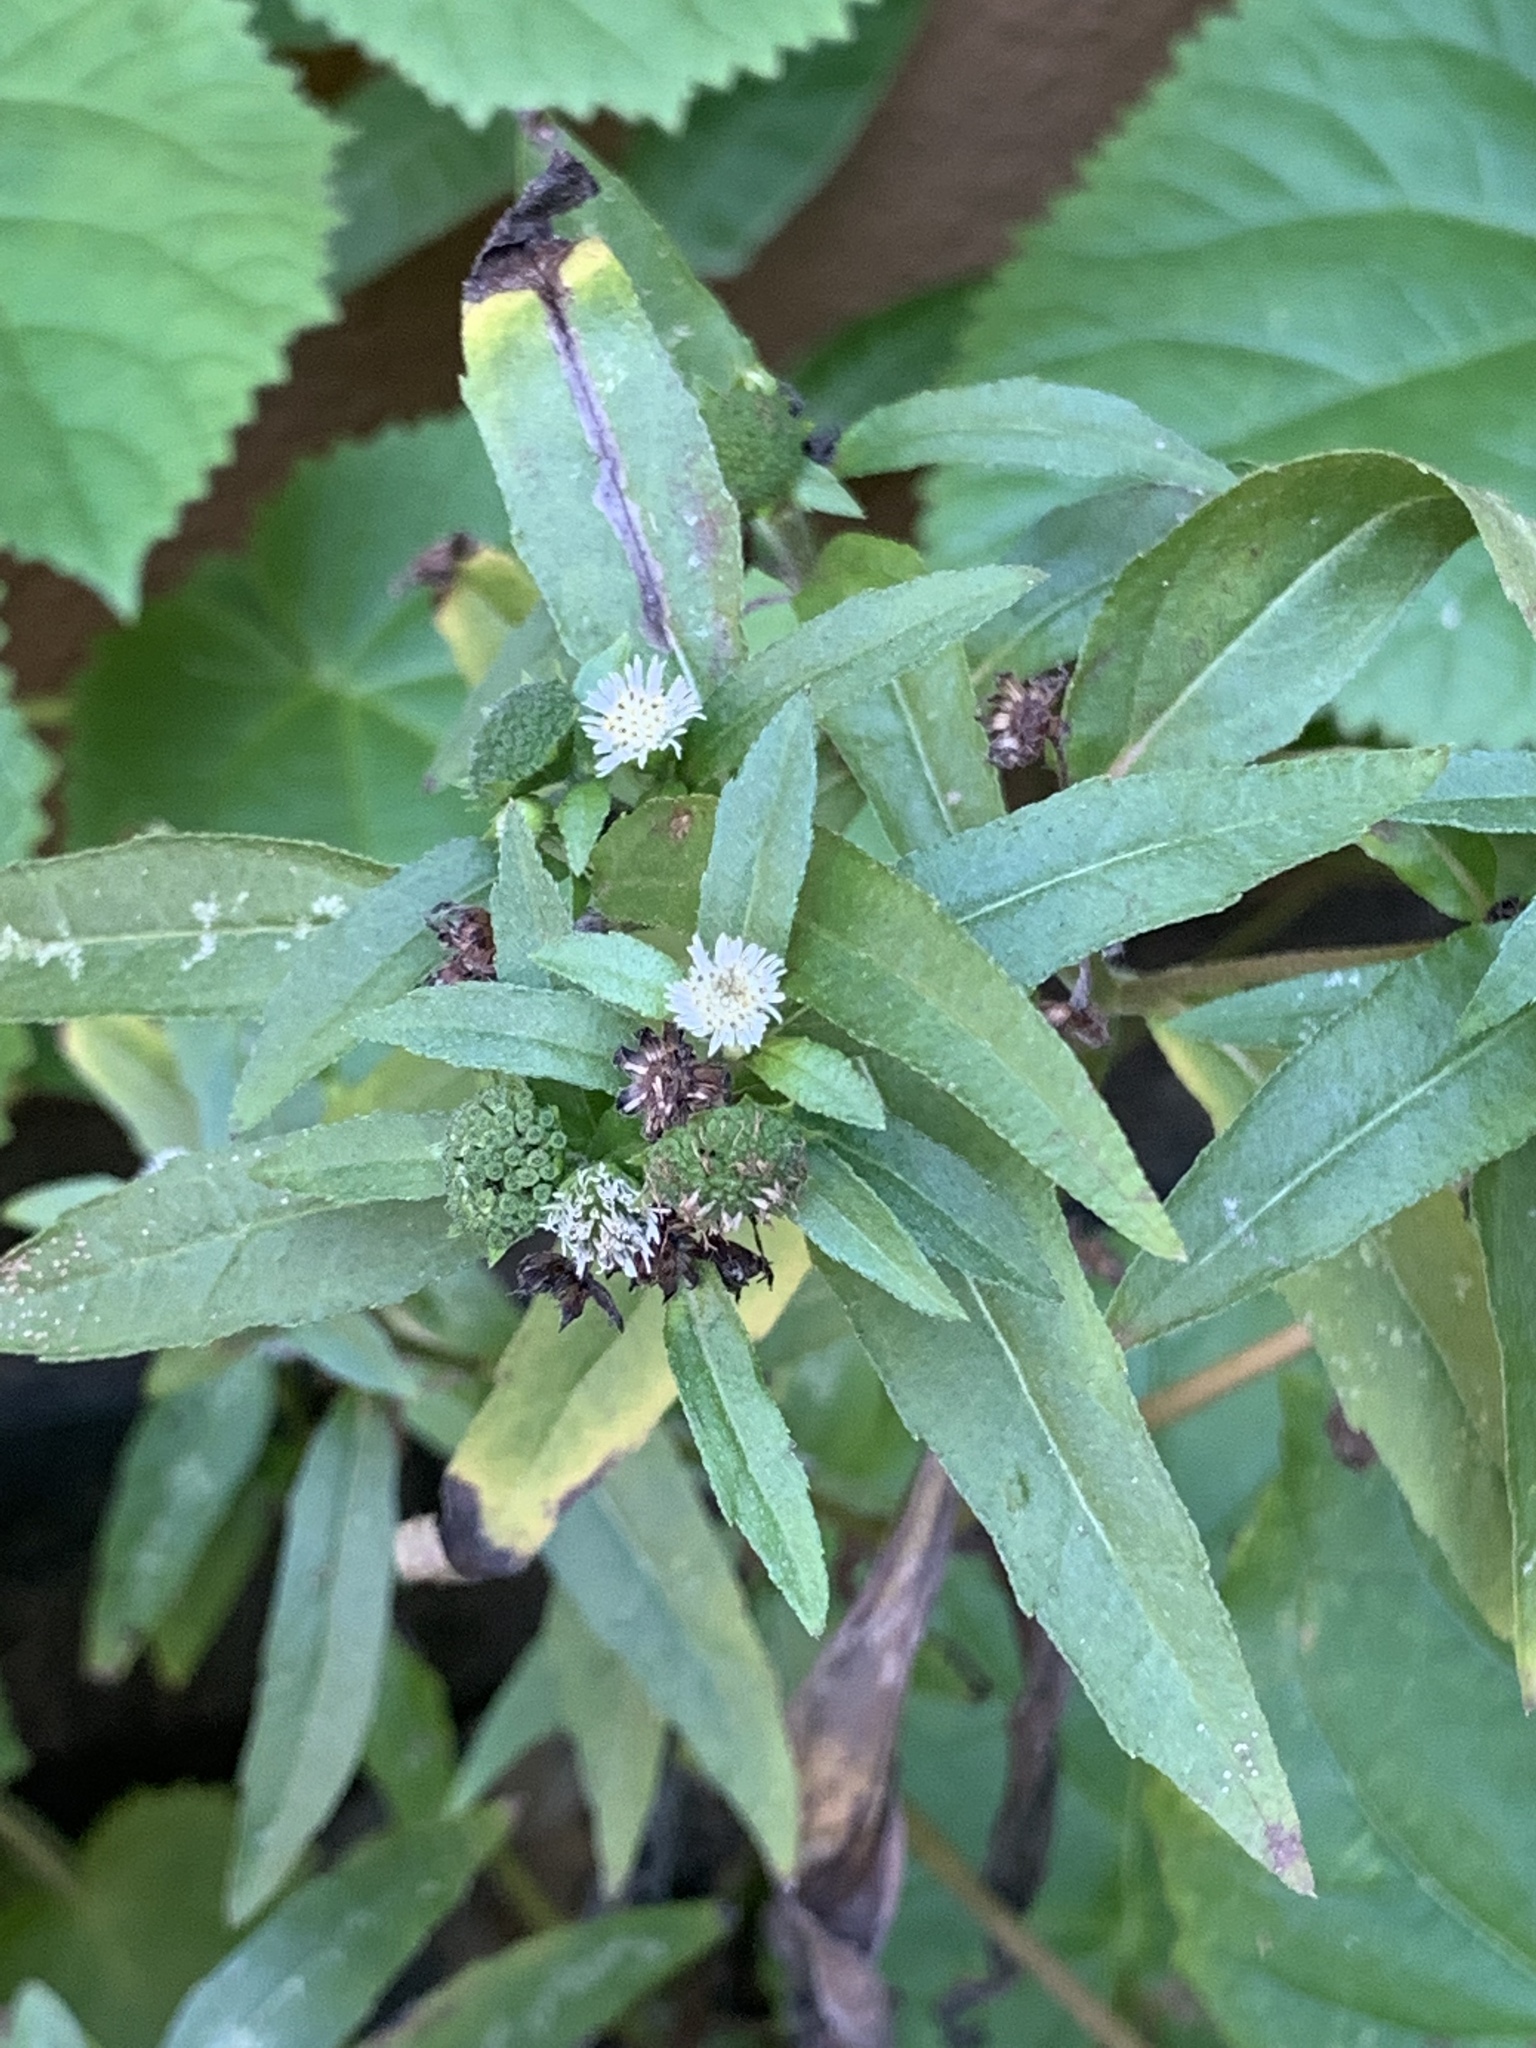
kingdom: Plantae
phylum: Tracheophyta
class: Magnoliopsida
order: Asterales
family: Asteraceae
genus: Eclipta
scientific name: Eclipta prostrata
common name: False daisy
